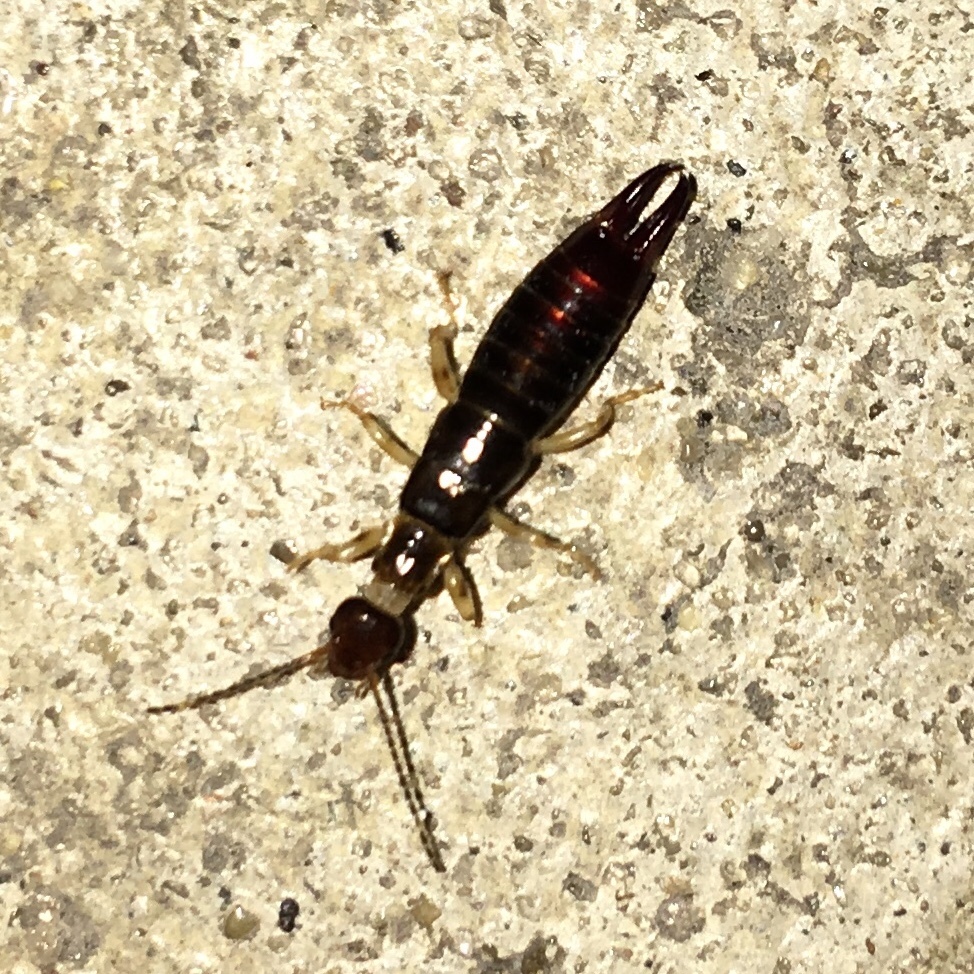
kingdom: Animalia
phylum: Arthropoda
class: Insecta
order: Dermaptera
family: Anisolabididae
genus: Euborellia
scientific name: Euborellia annulipes
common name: Ringlegged earwig
